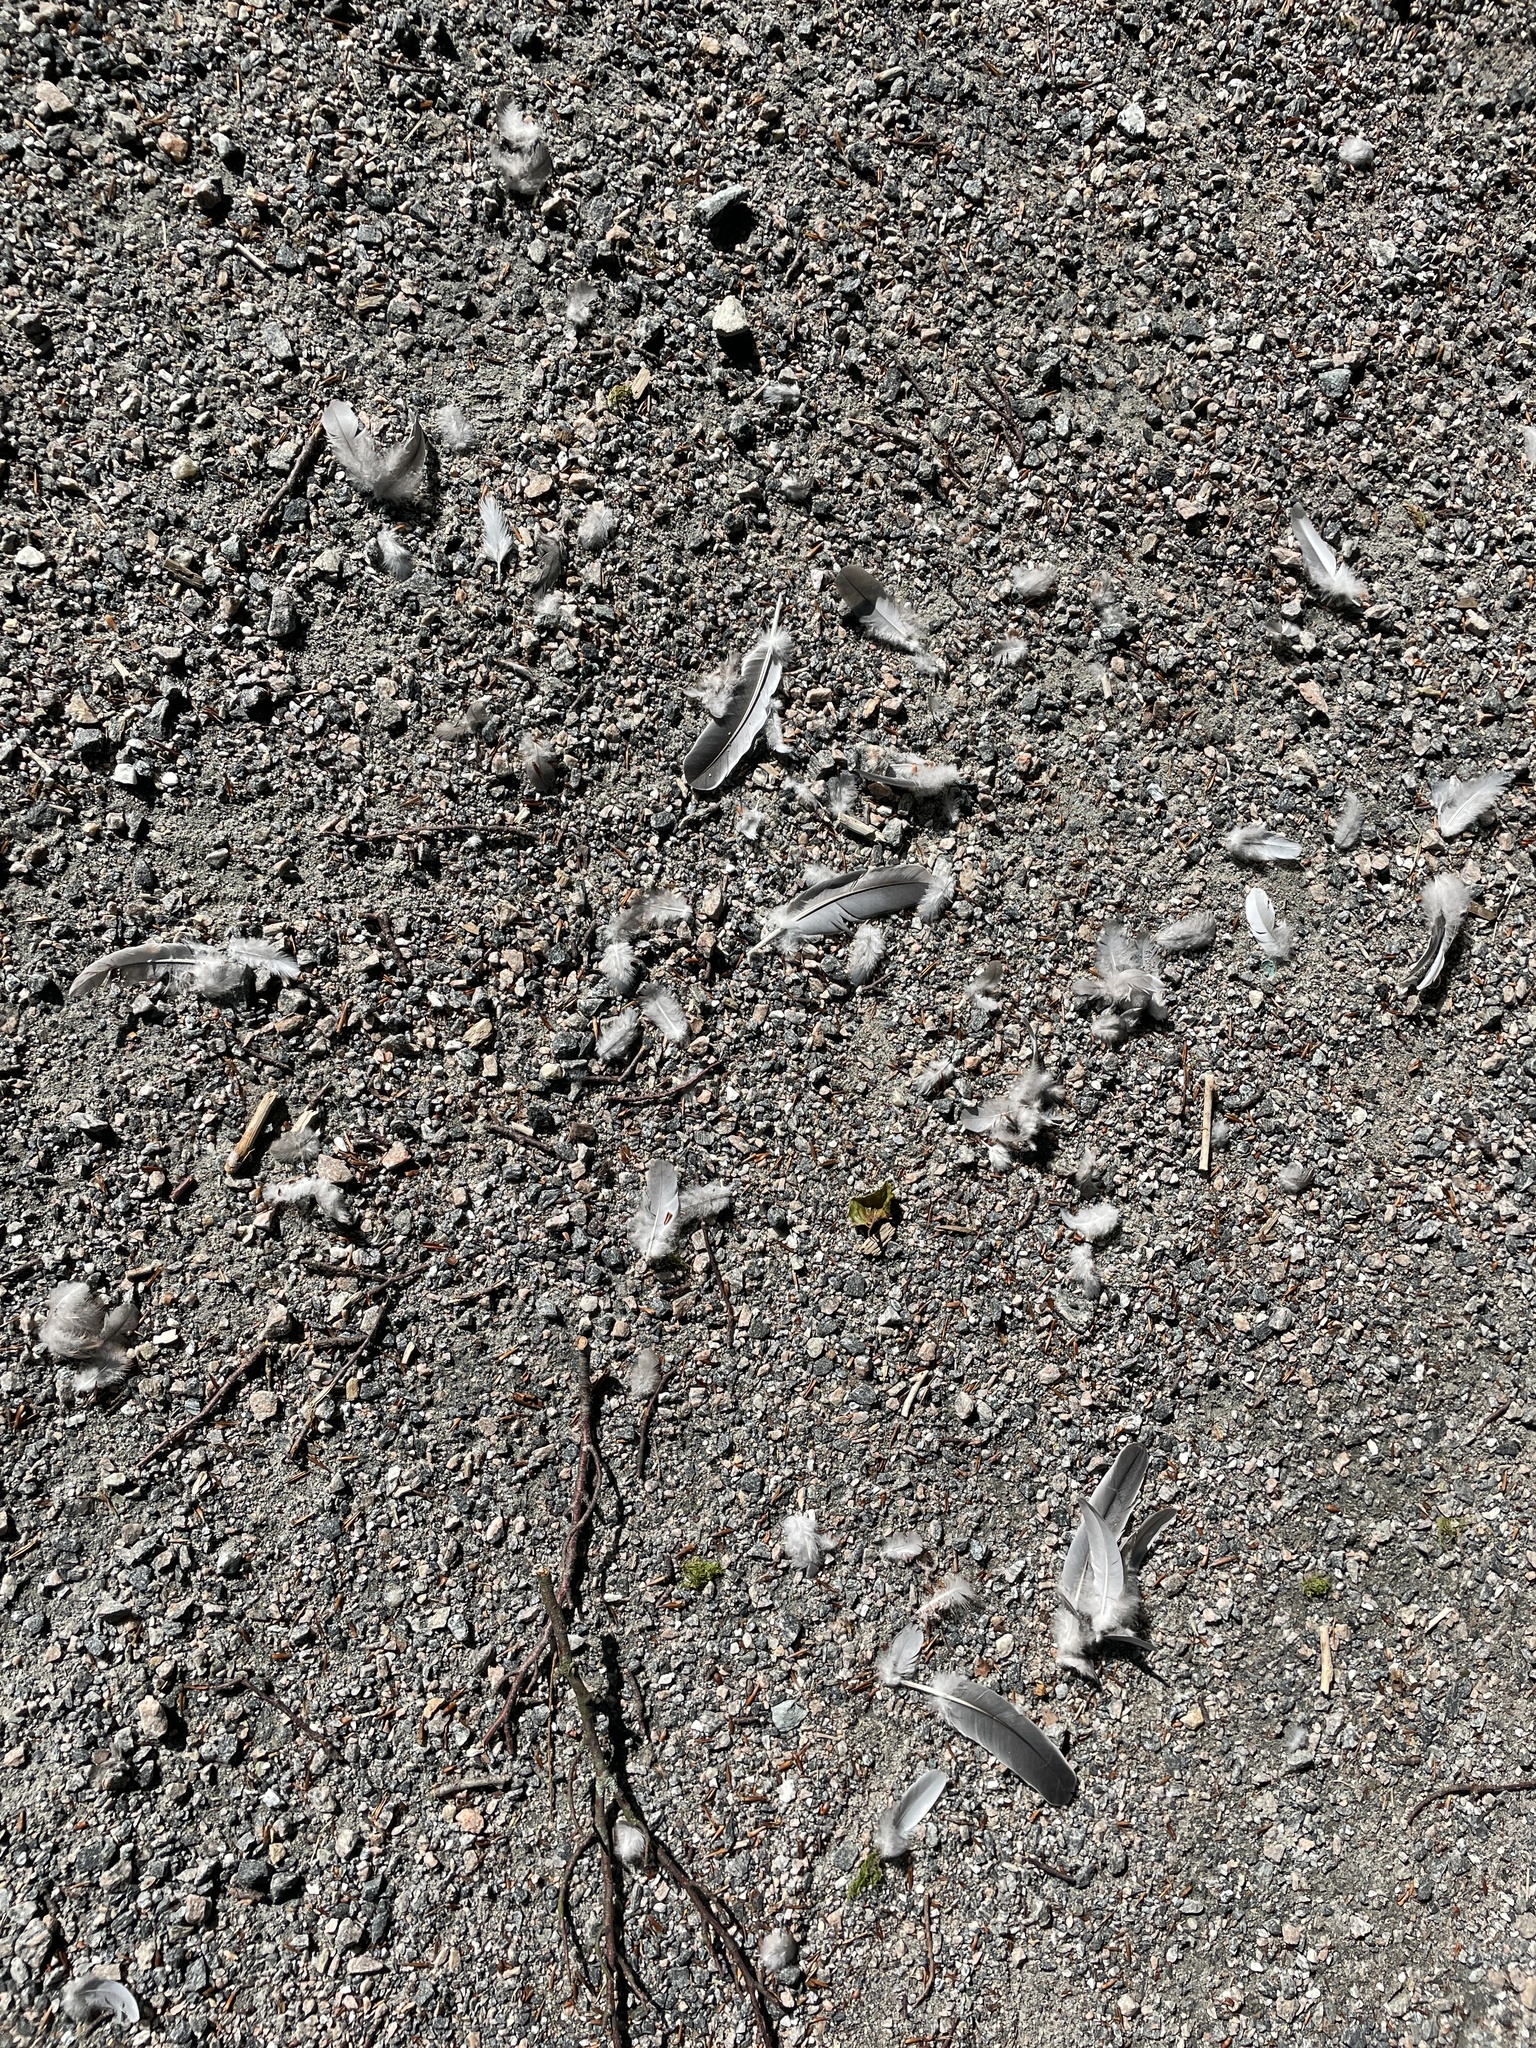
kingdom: Animalia
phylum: Chordata
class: Aves
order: Columbiformes
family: Columbidae
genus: Columba
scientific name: Columba palumbus
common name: Common wood pigeon
